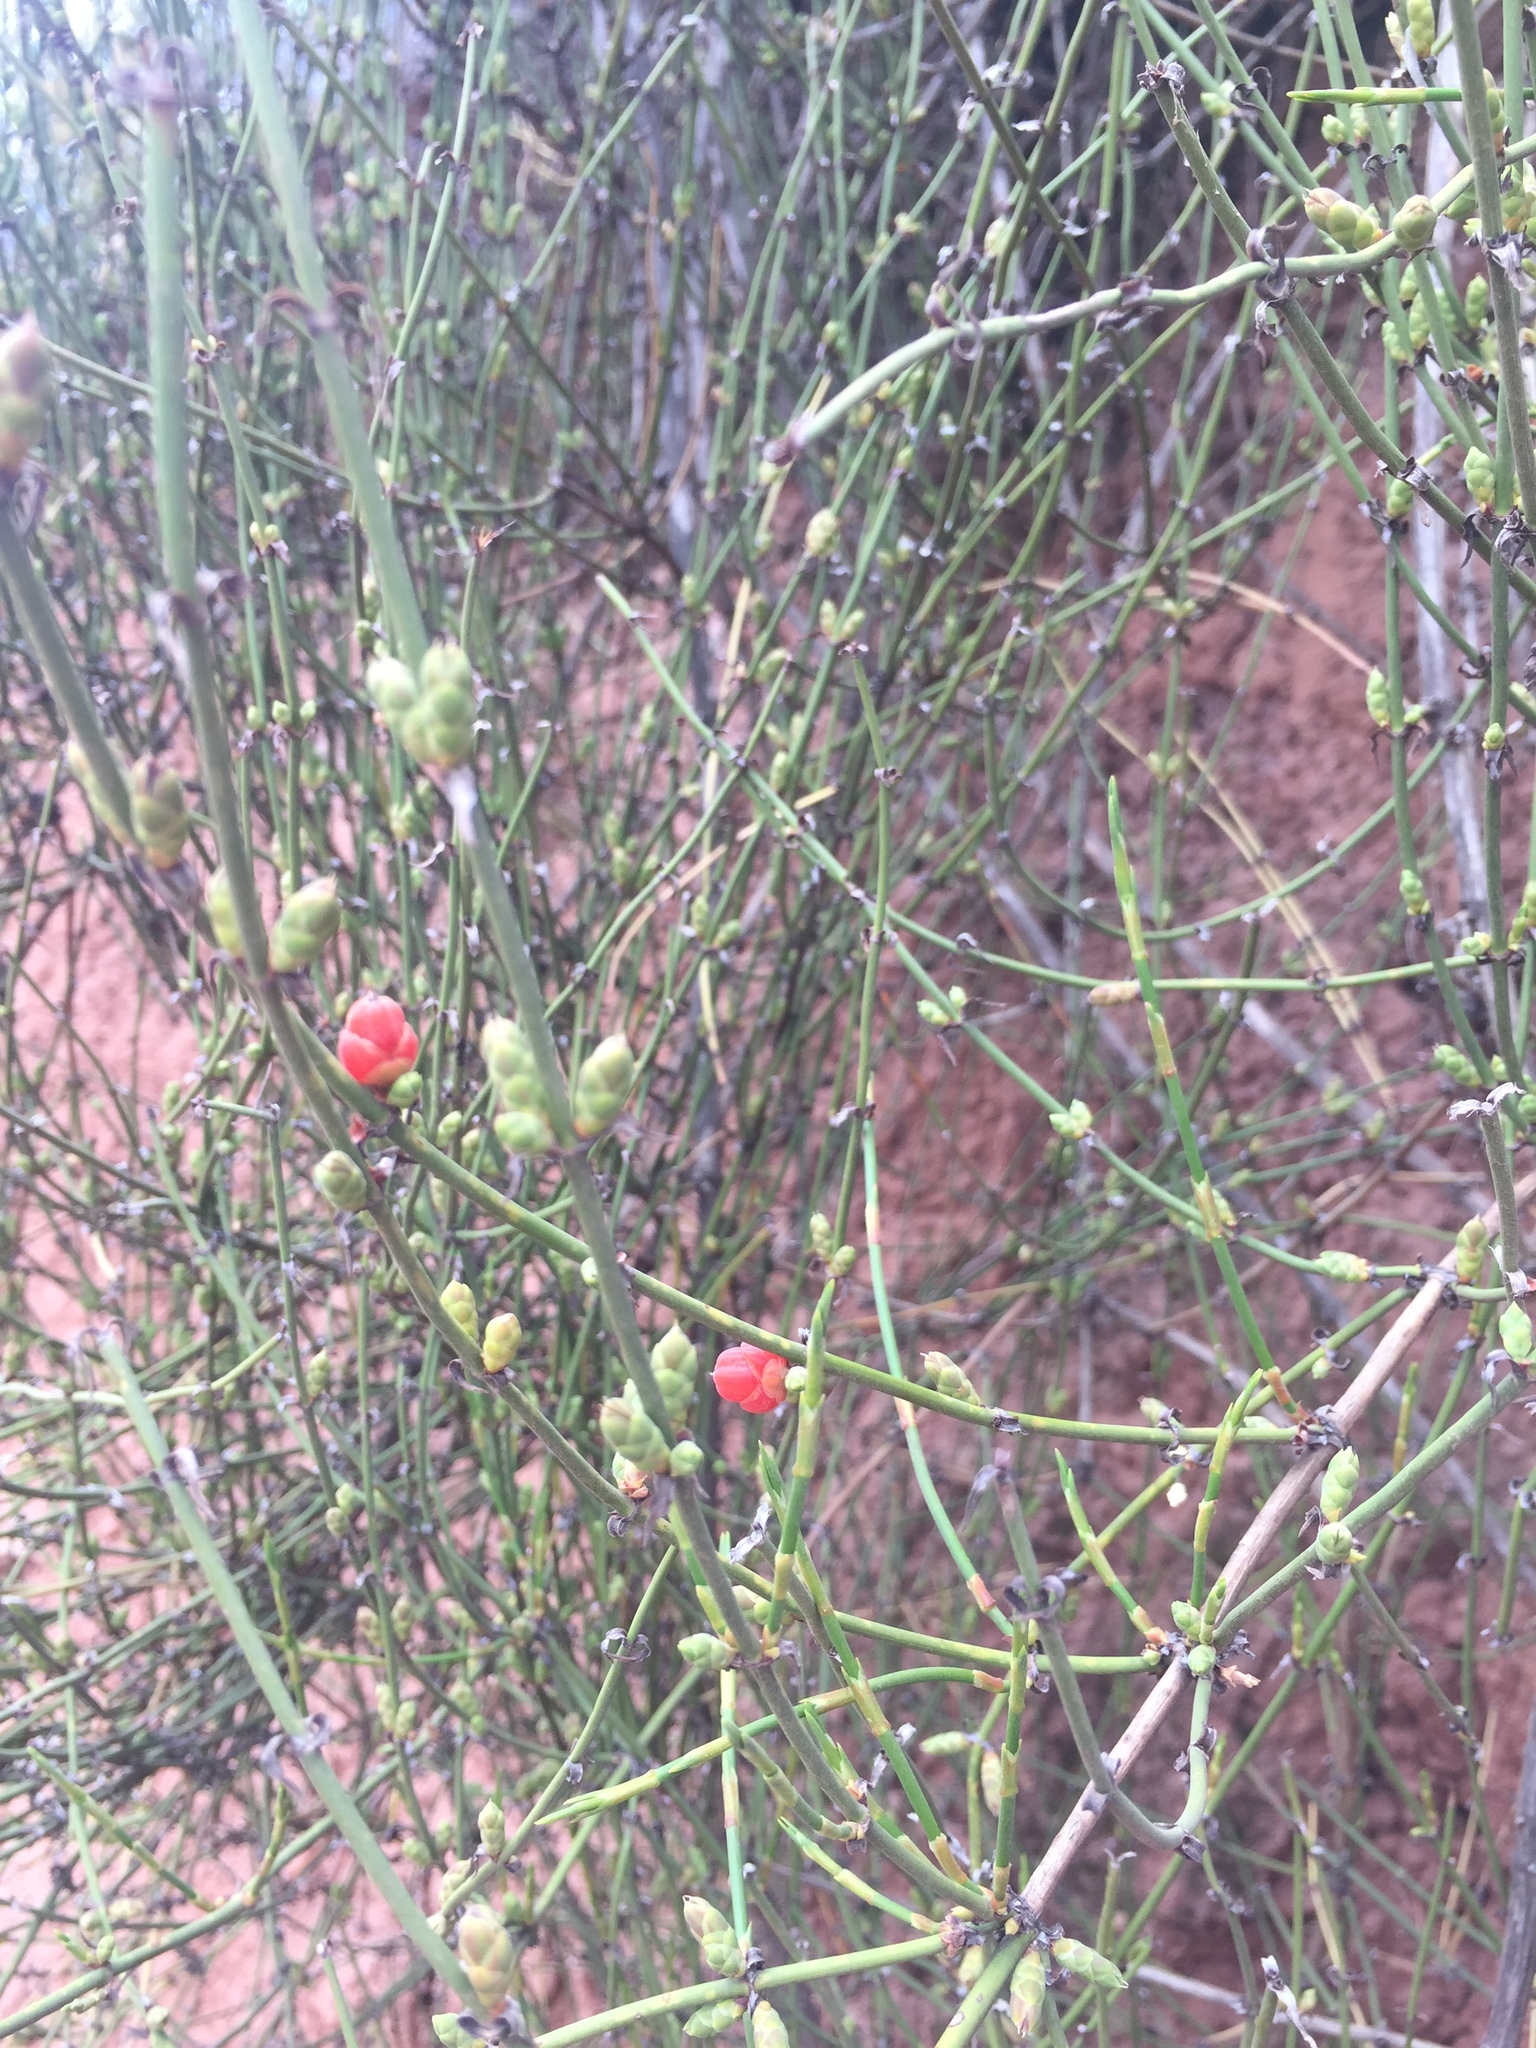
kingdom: Plantae
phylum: Tracheophyta
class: Gnetopsida
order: Ephedrales
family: Ephedraceae
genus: Ephedra
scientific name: Ephedra americana
